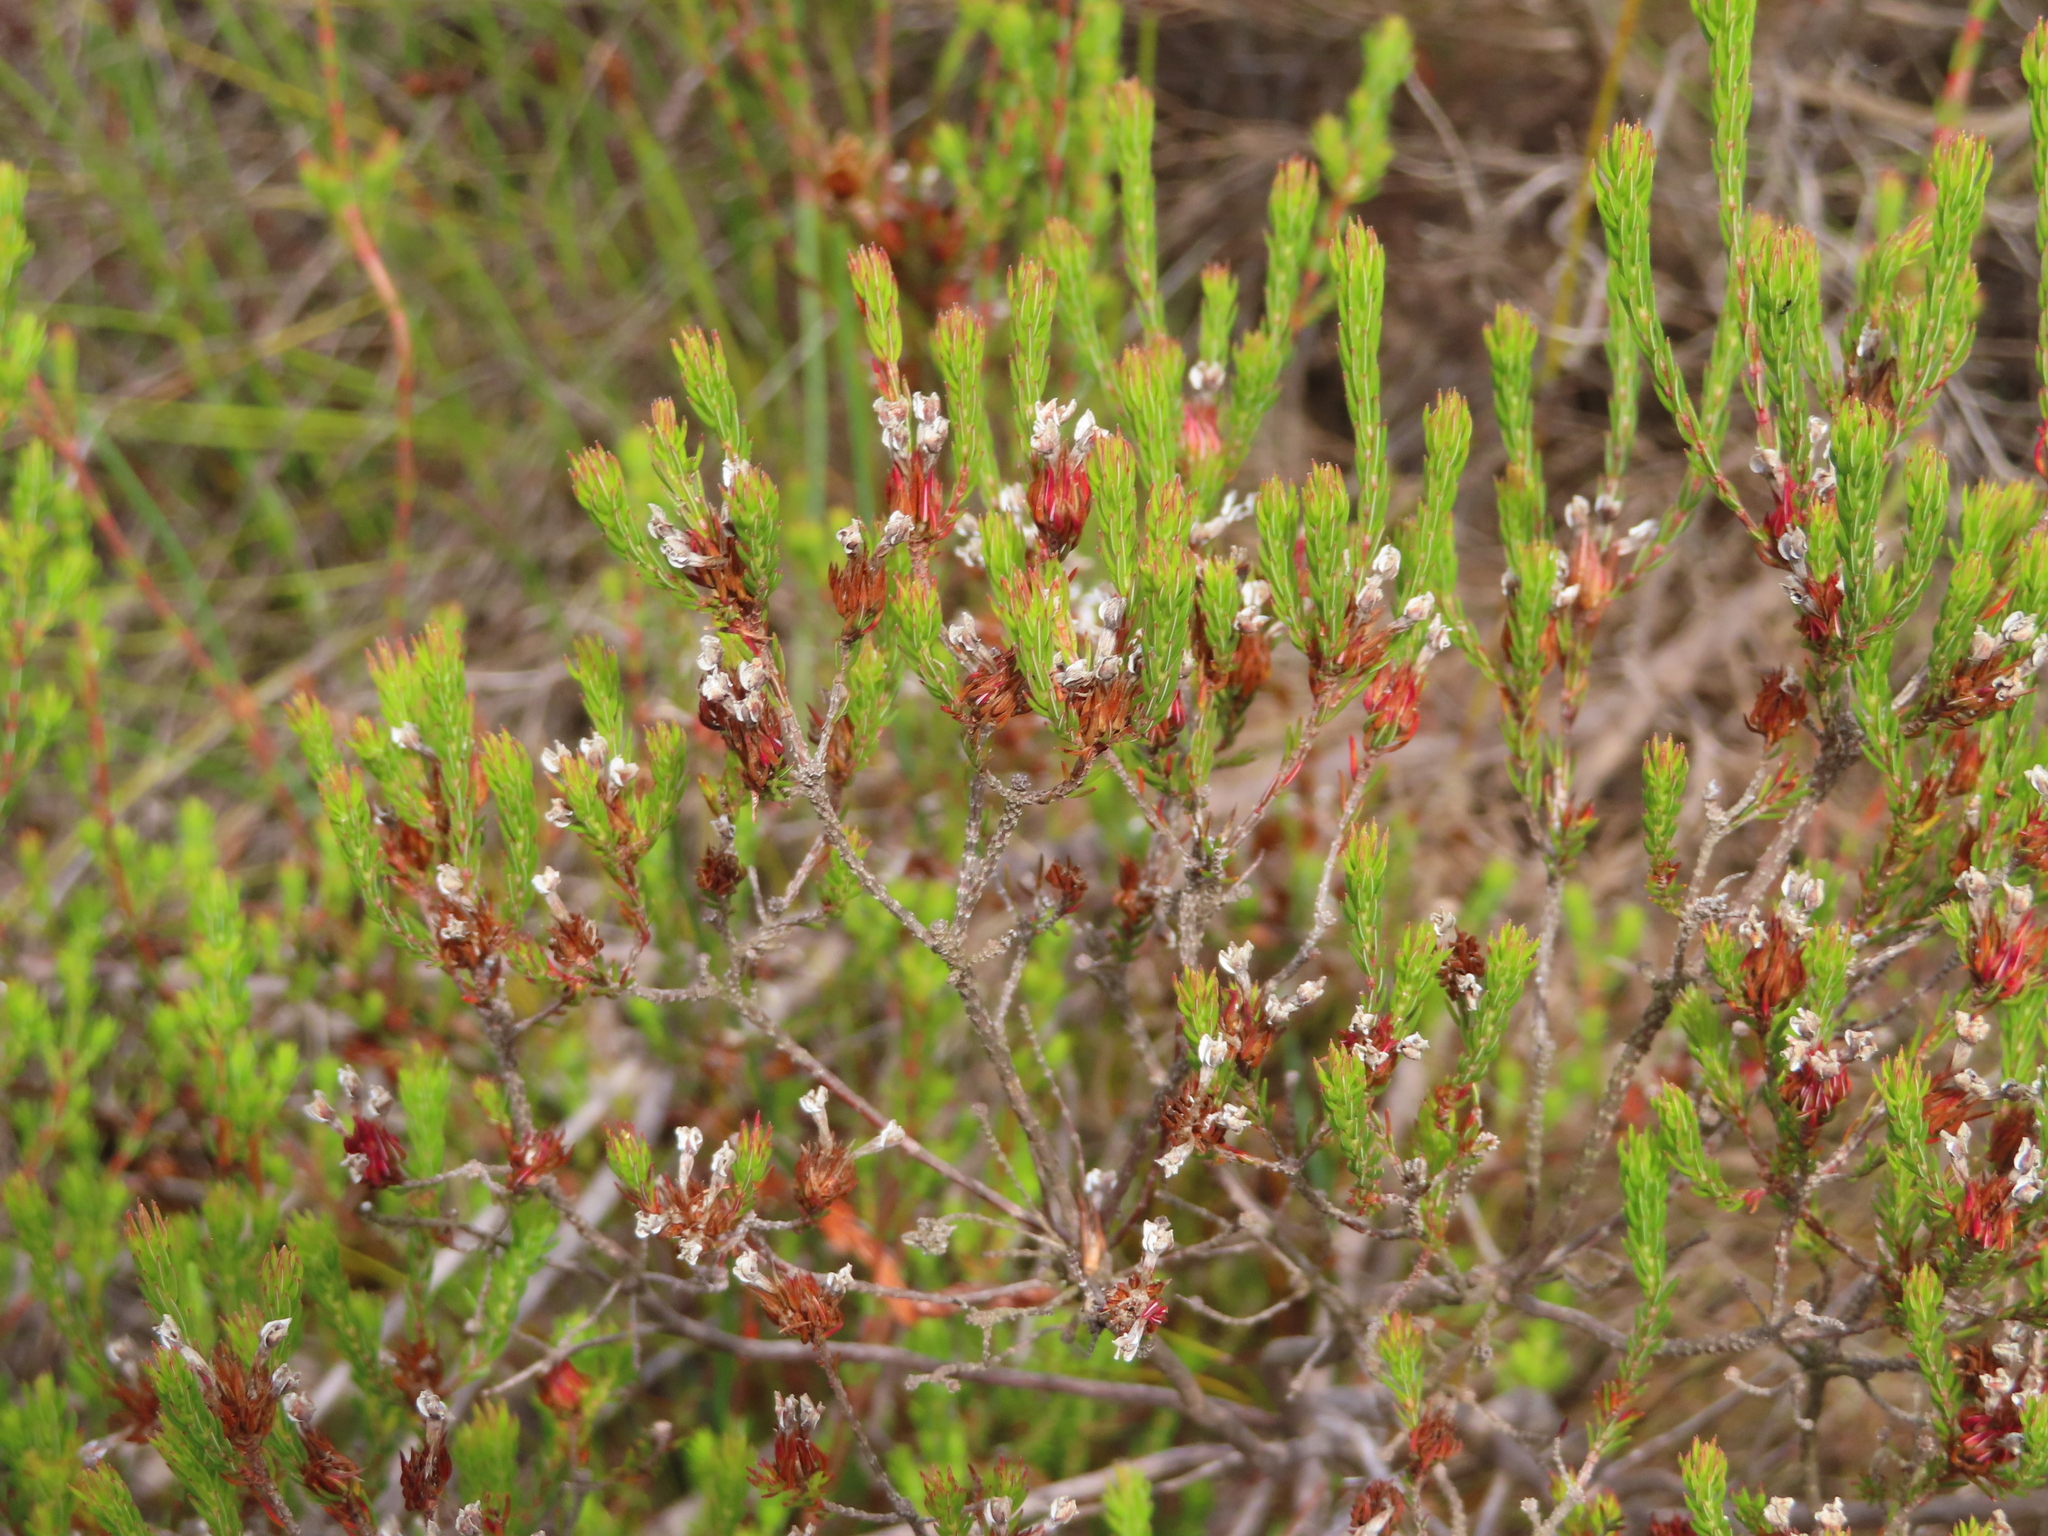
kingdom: Plantae
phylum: Tracheophyta
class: Magnoliopsida
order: Ericales
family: Ericaceae
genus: Erica
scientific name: Erica fastigiata
